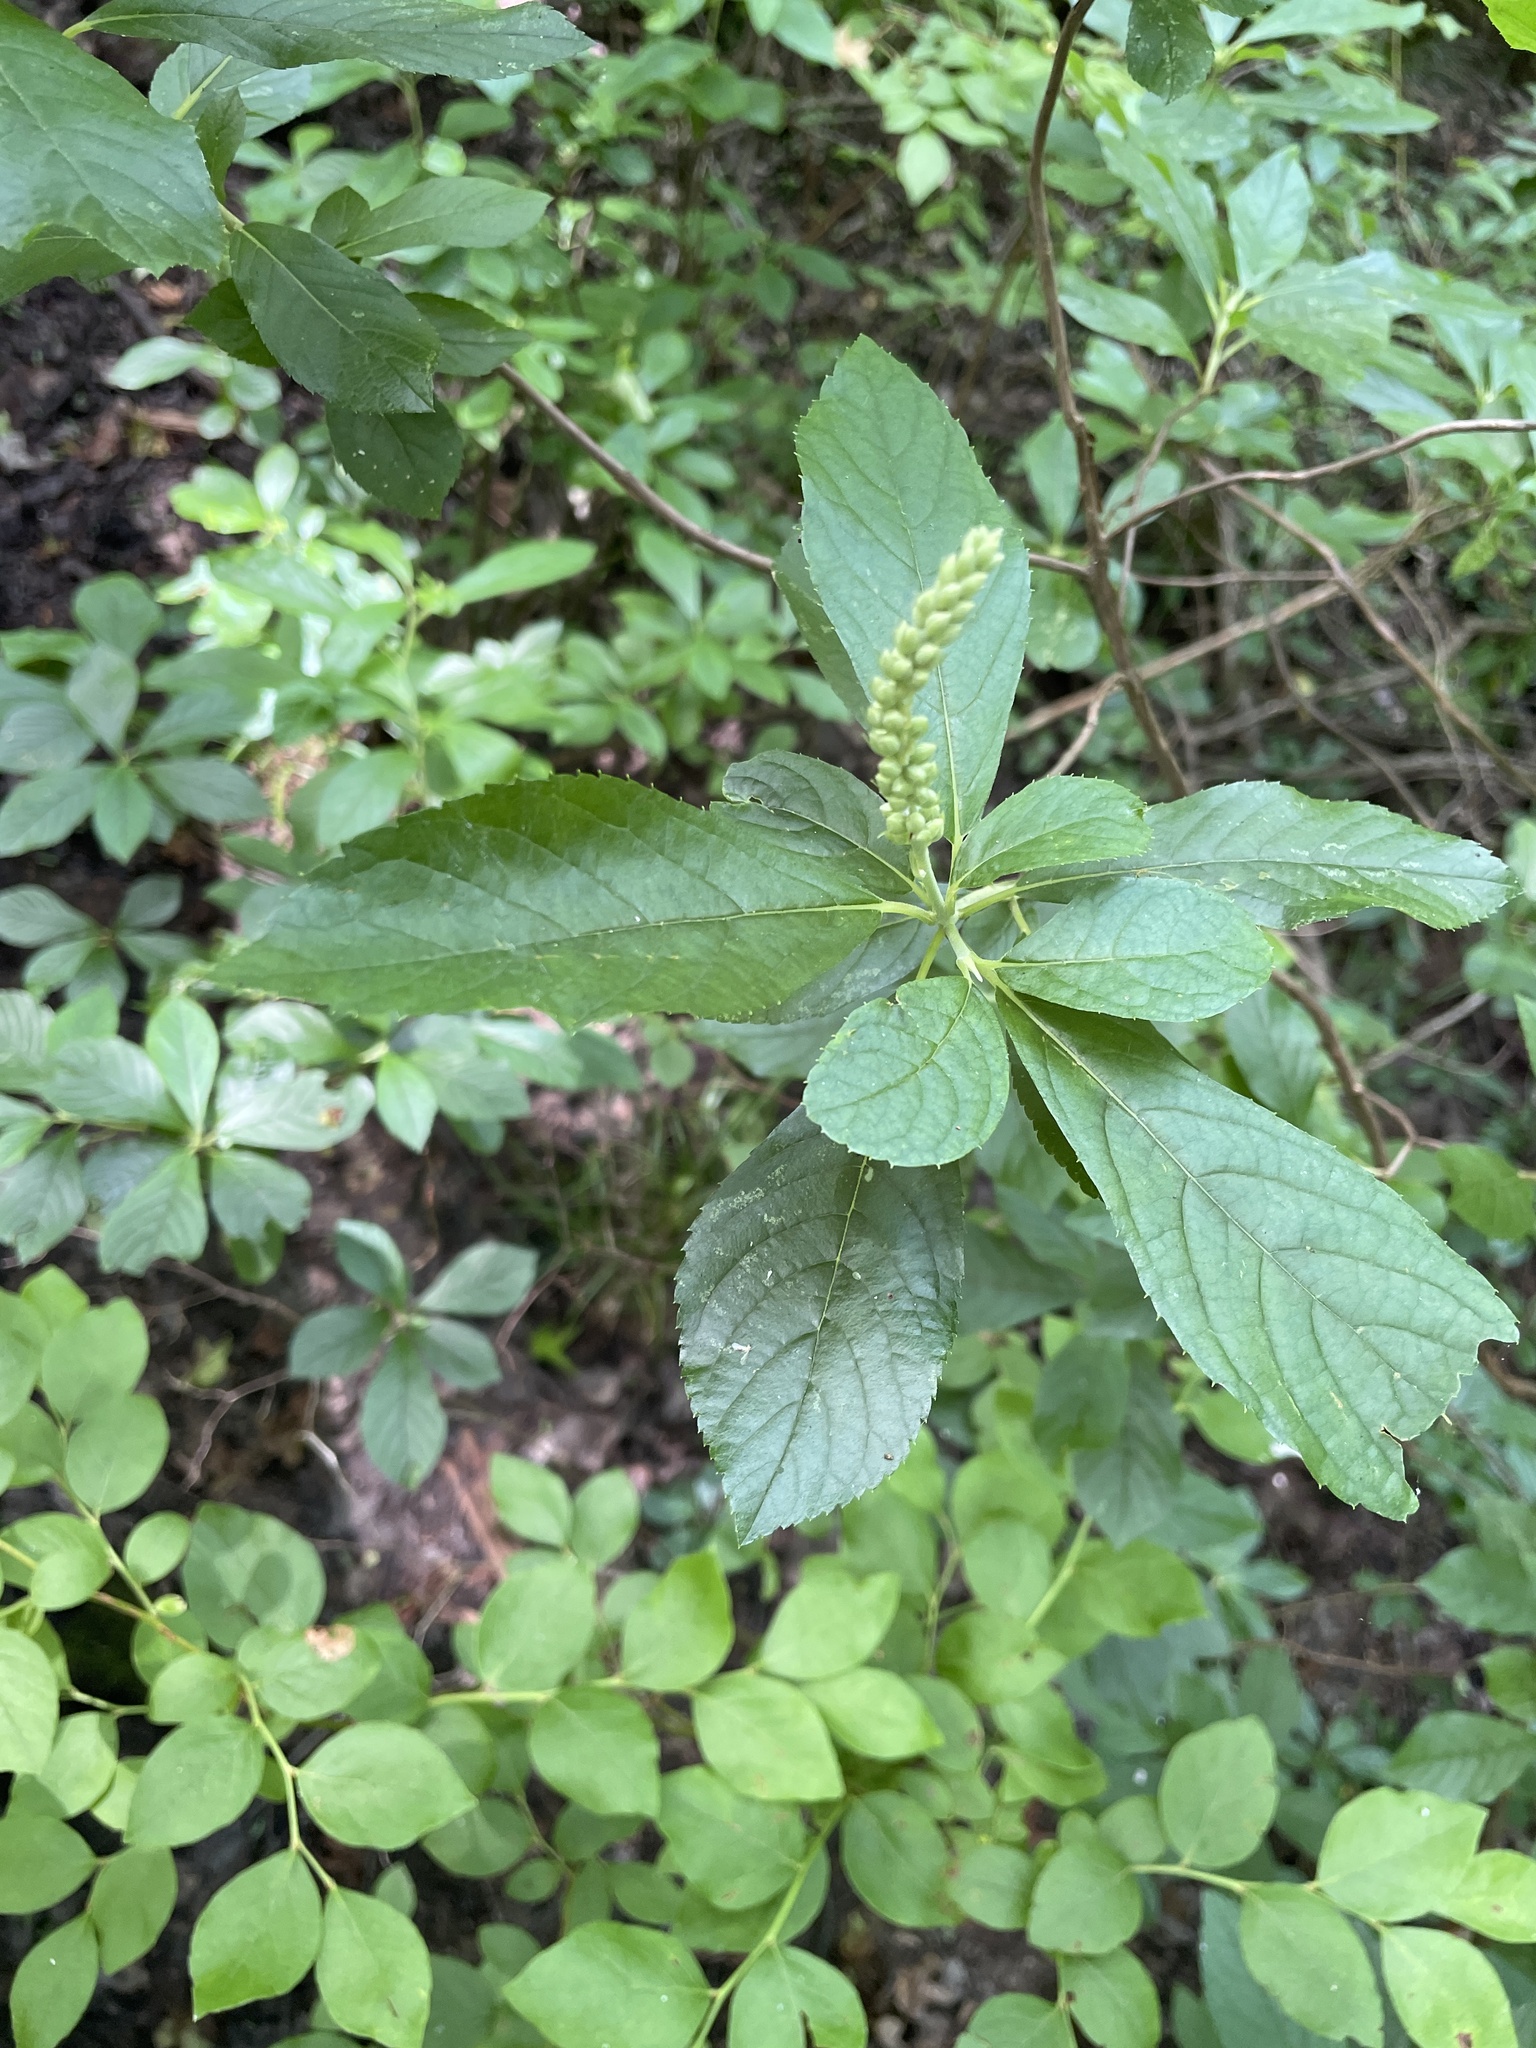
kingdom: Plantae
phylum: Tracheophyta
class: Magnoliopsida
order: Ericales
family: Clethraceae
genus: Clethra
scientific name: Clethra alnifolia
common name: Sweet pepperbush
